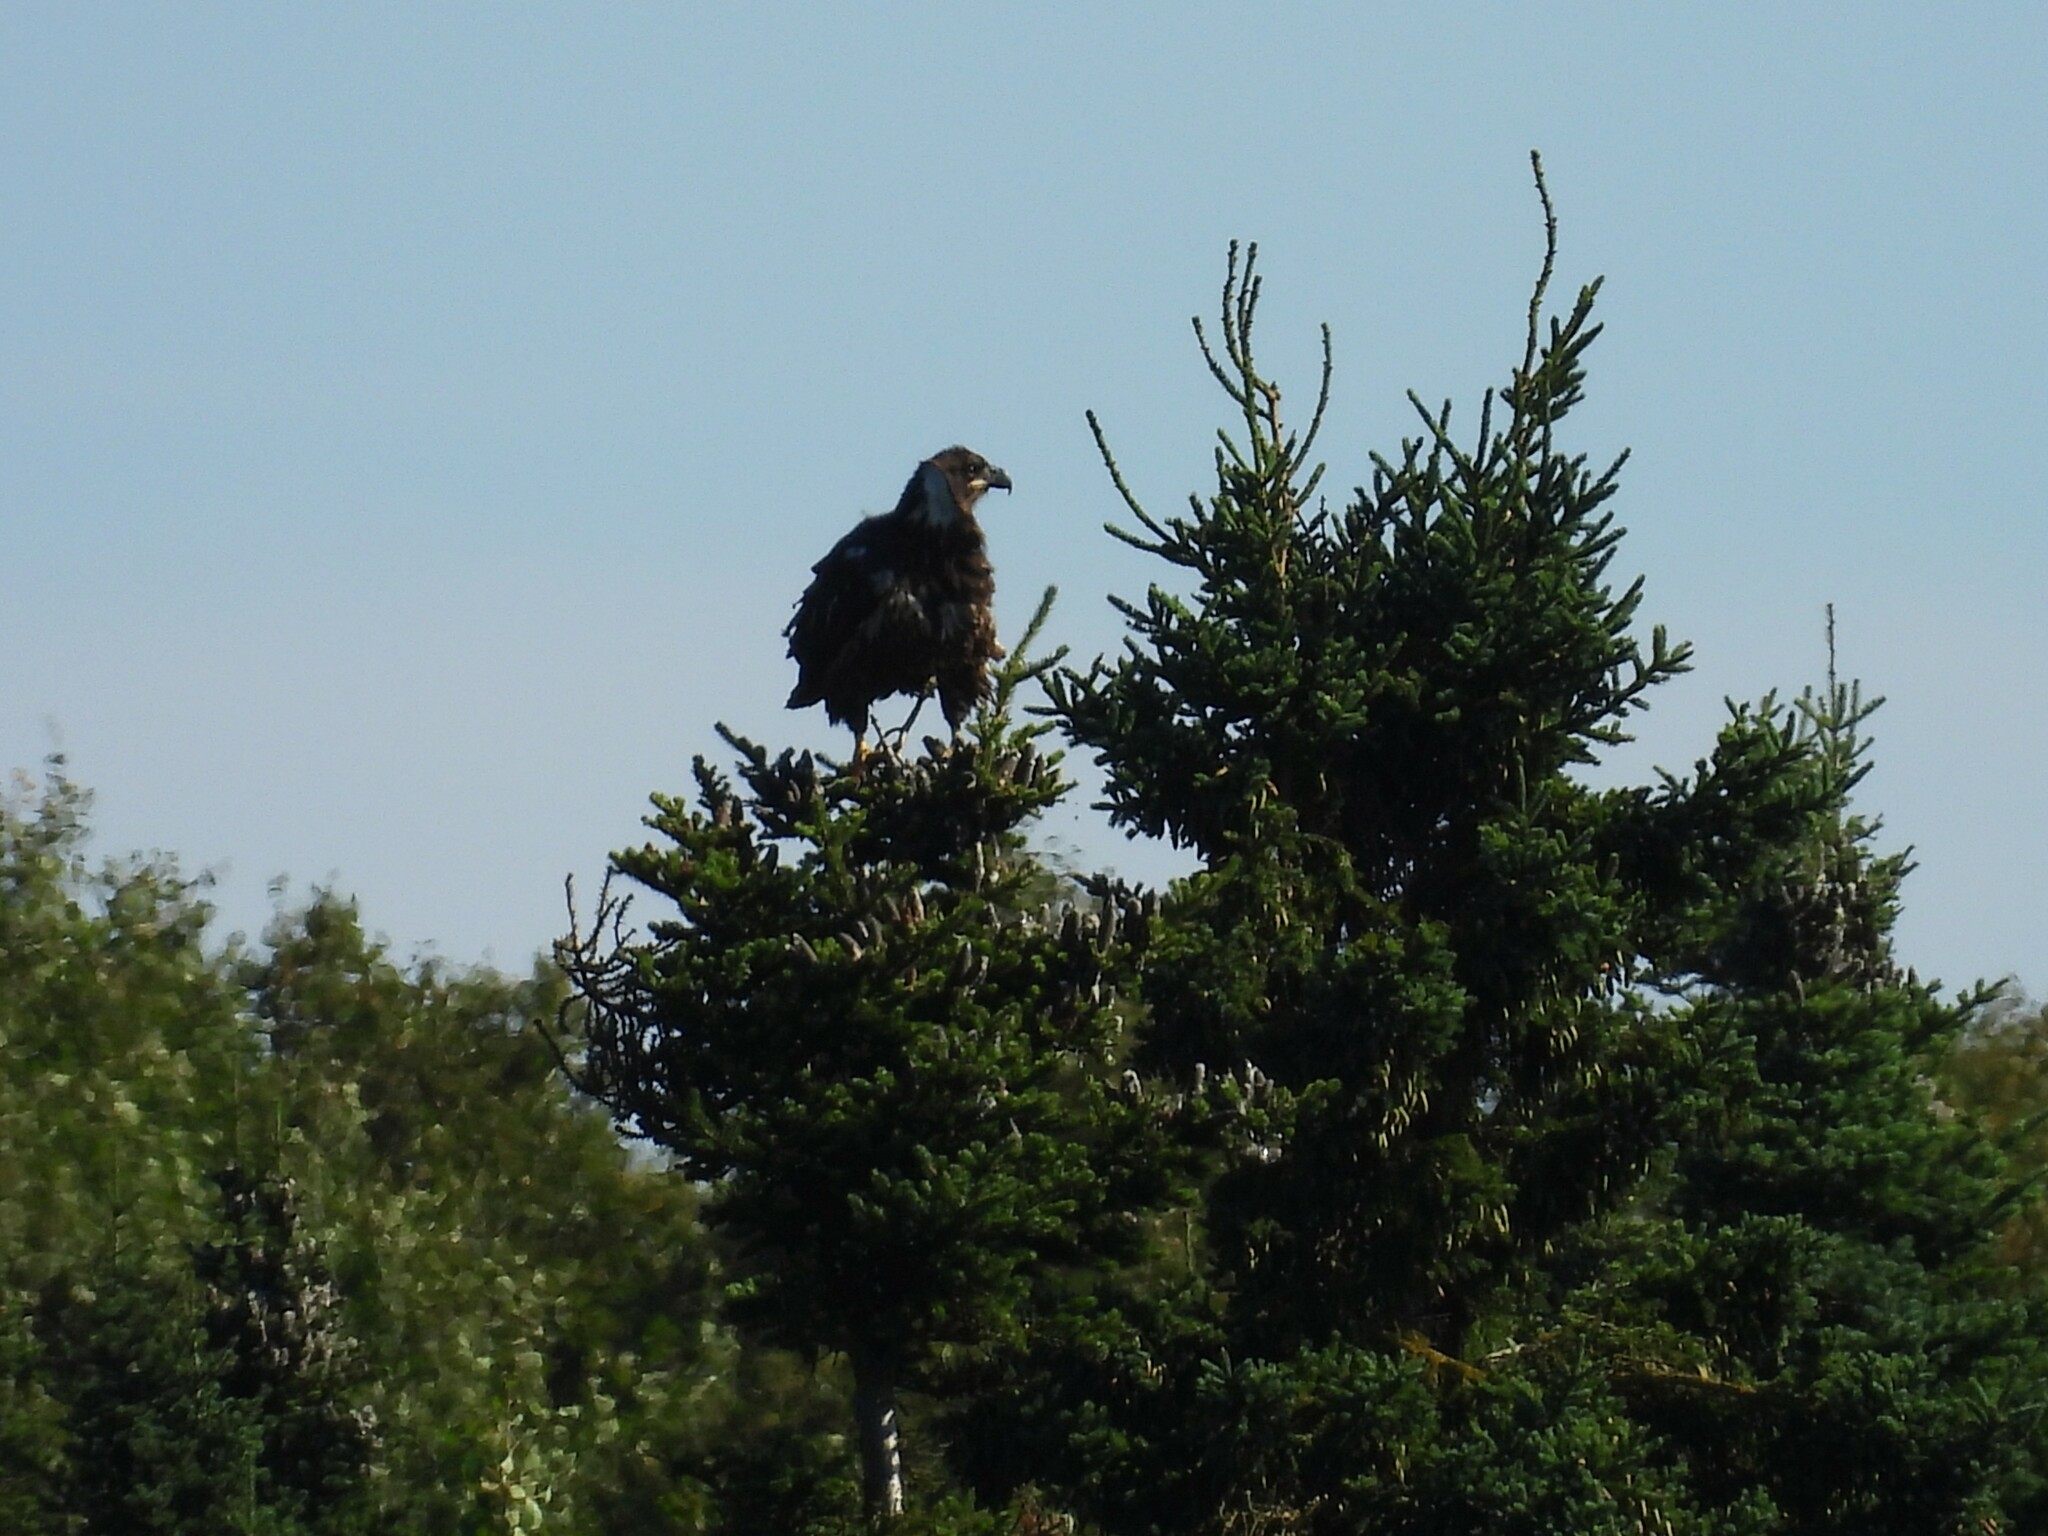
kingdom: Animalia
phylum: Chordata
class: Aves
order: Accipitriformes
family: Accipitridae
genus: Haliaeetus
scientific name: Haliaeetus leucocephalus
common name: Bald eagle
